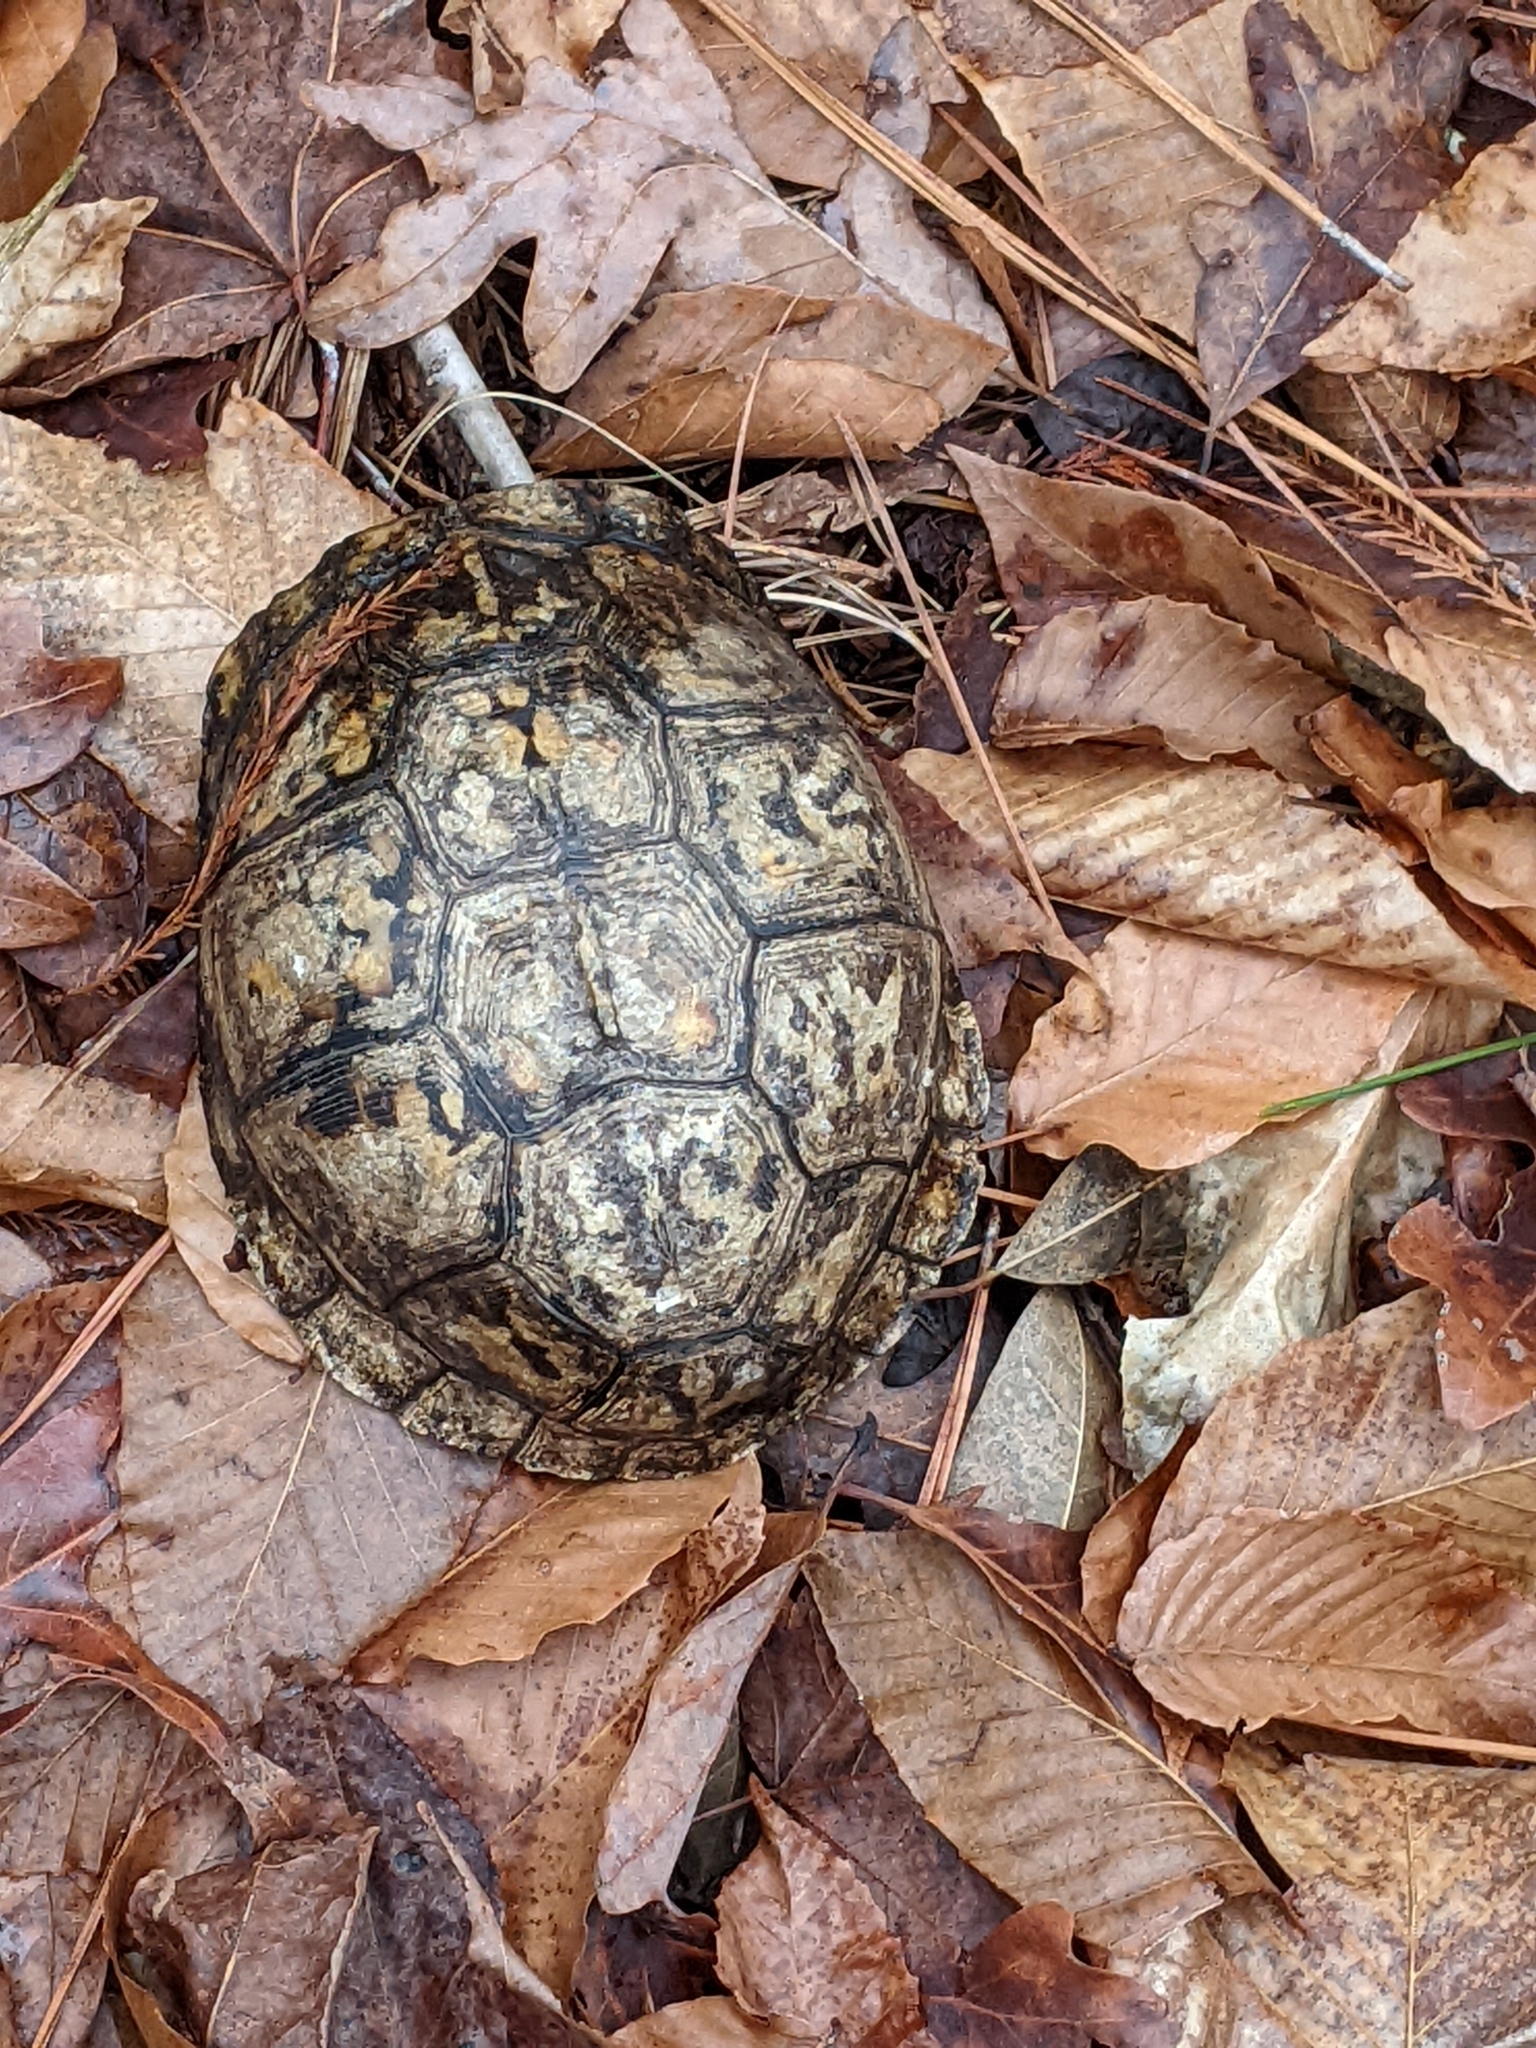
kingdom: Animalia
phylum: Chordata
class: Testudines
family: Emydidae
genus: Terrapene
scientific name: Terrapene carolina
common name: Common box turtle
